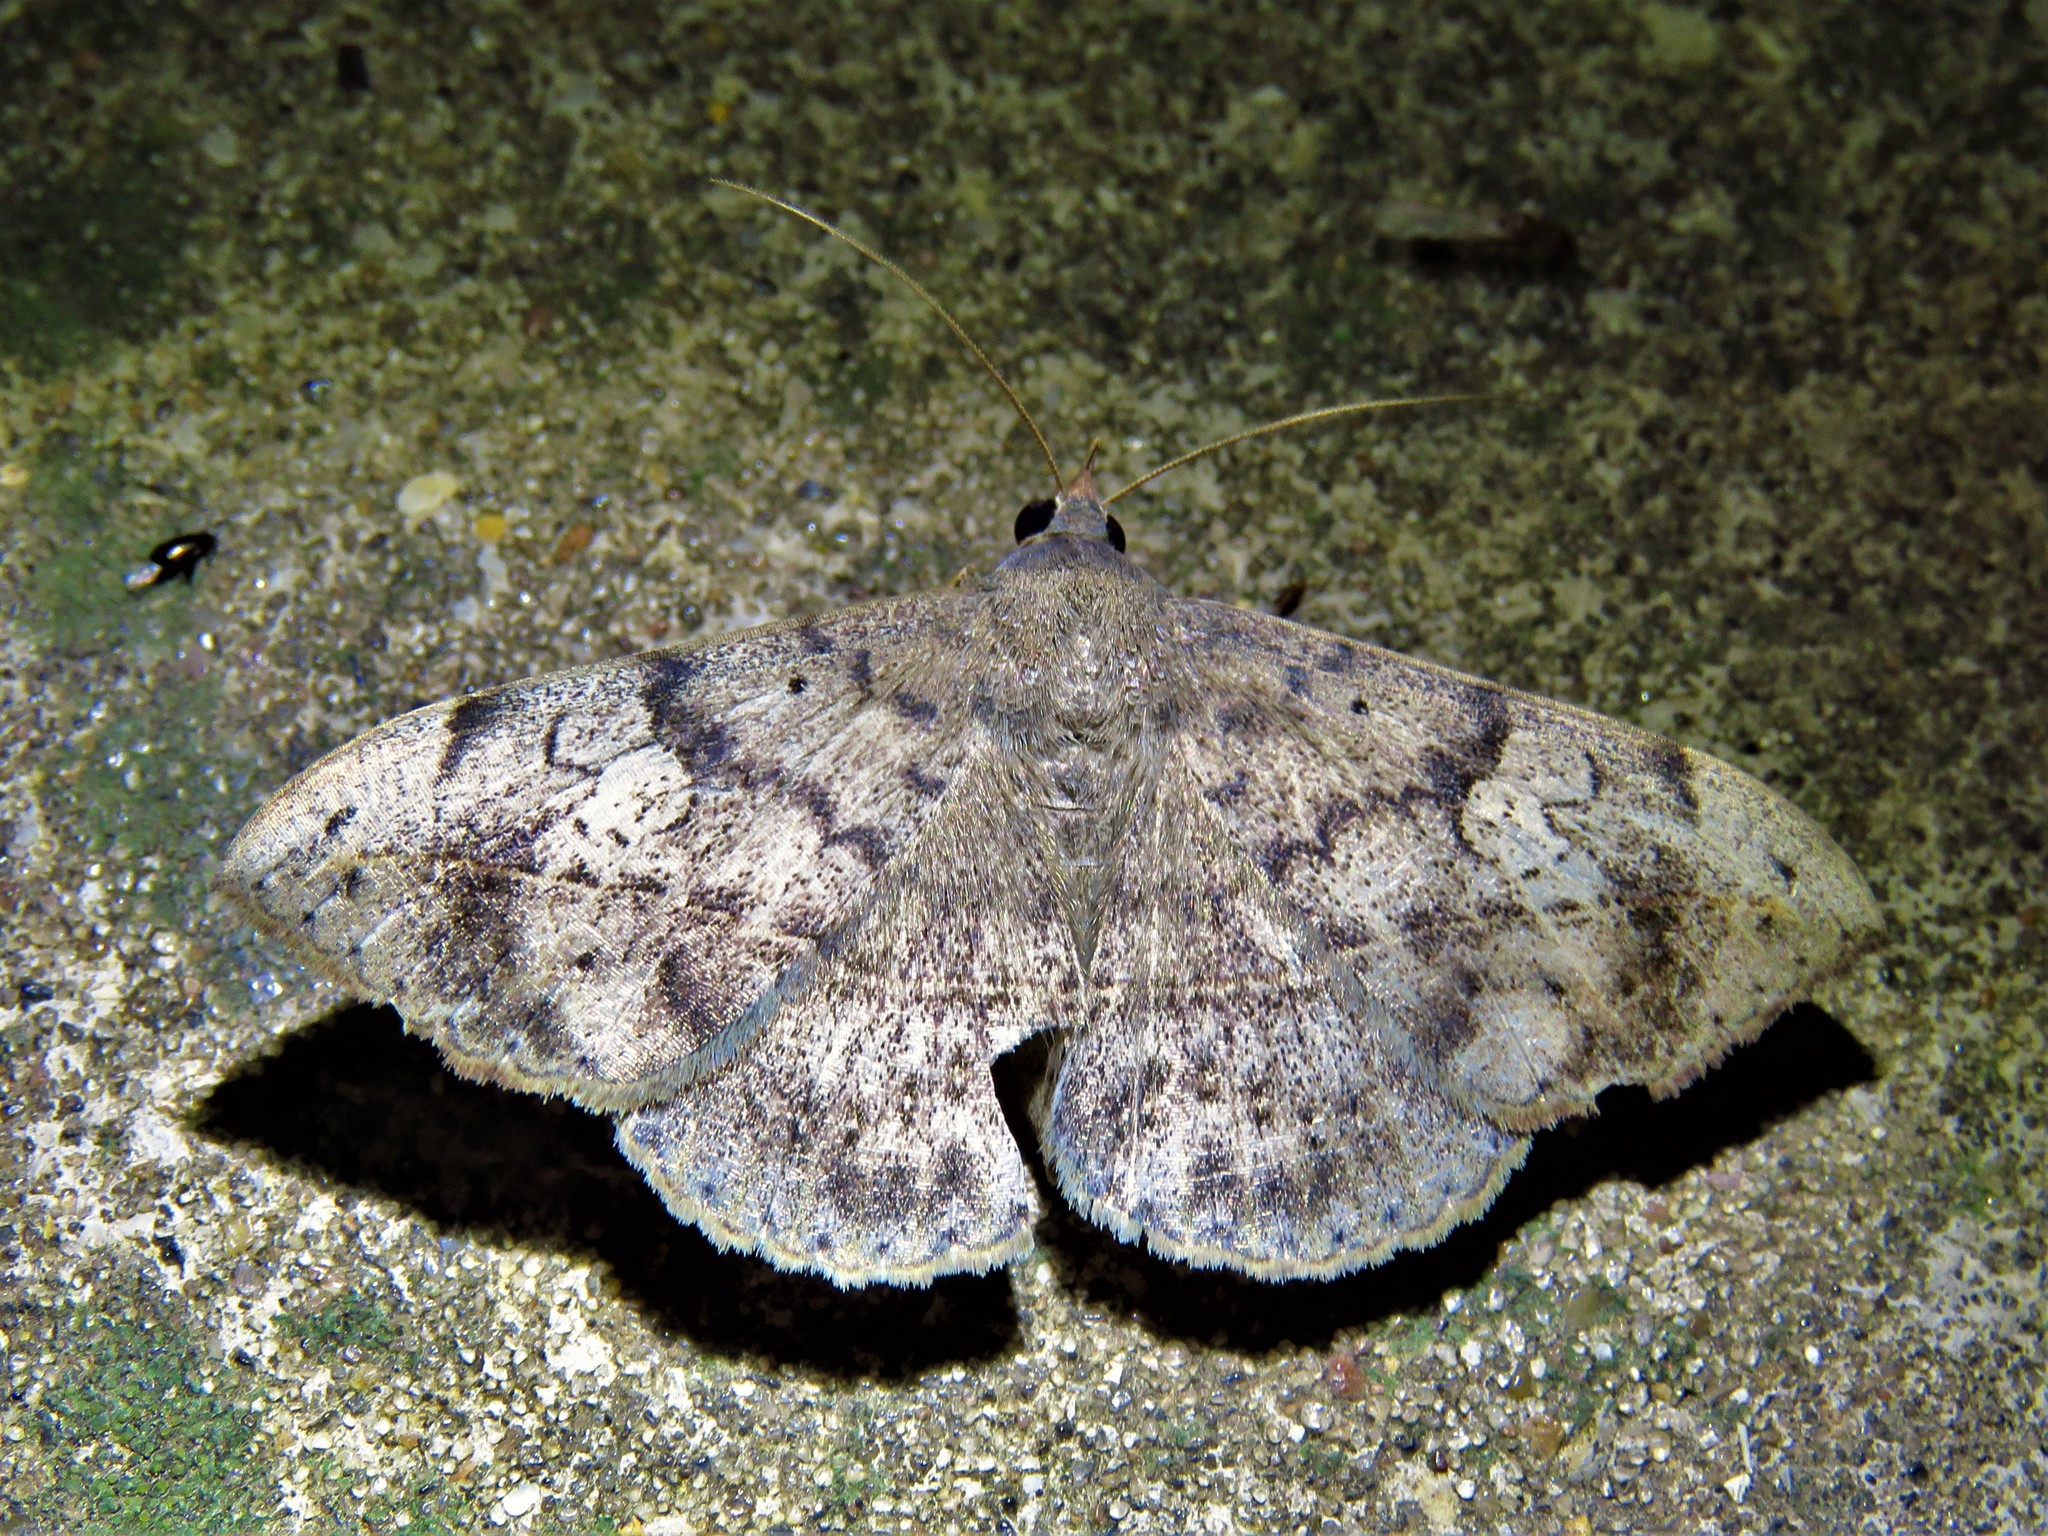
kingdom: Animalia
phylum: Arthropoda
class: Insecta
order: Lepidoptera
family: Erebidae
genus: Anticarsia
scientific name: Anticarsia gemmatalis
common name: Cutworm moth
